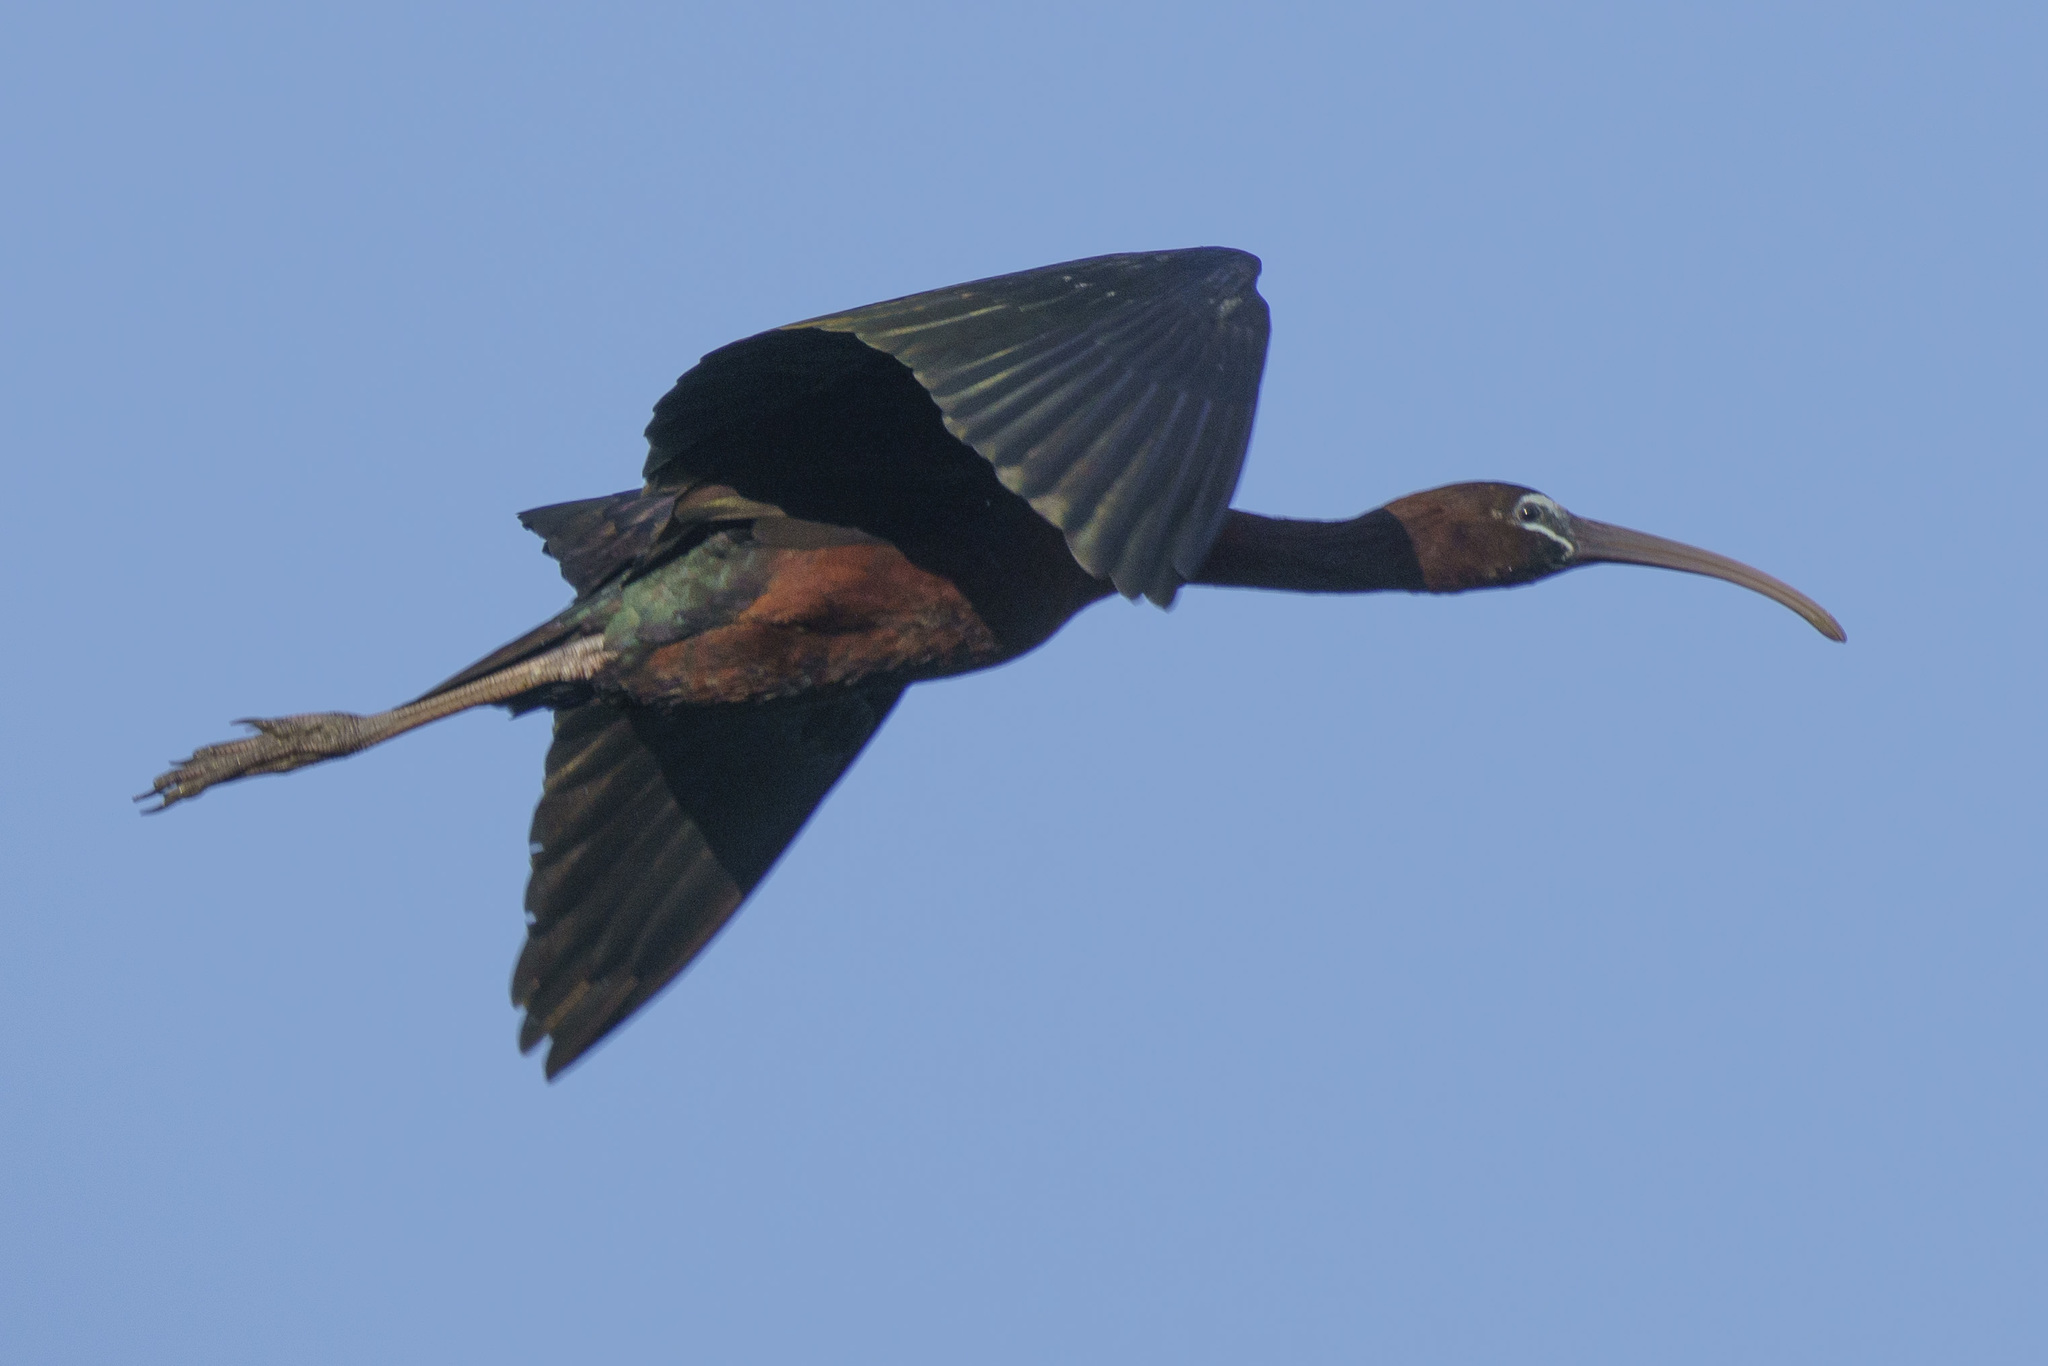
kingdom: Animalia
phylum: Chordata
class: Aves
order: Pelecaniformes
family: Threskiornithidae
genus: Plegadis
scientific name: Plegadis falcinellus
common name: Glossy ibis
